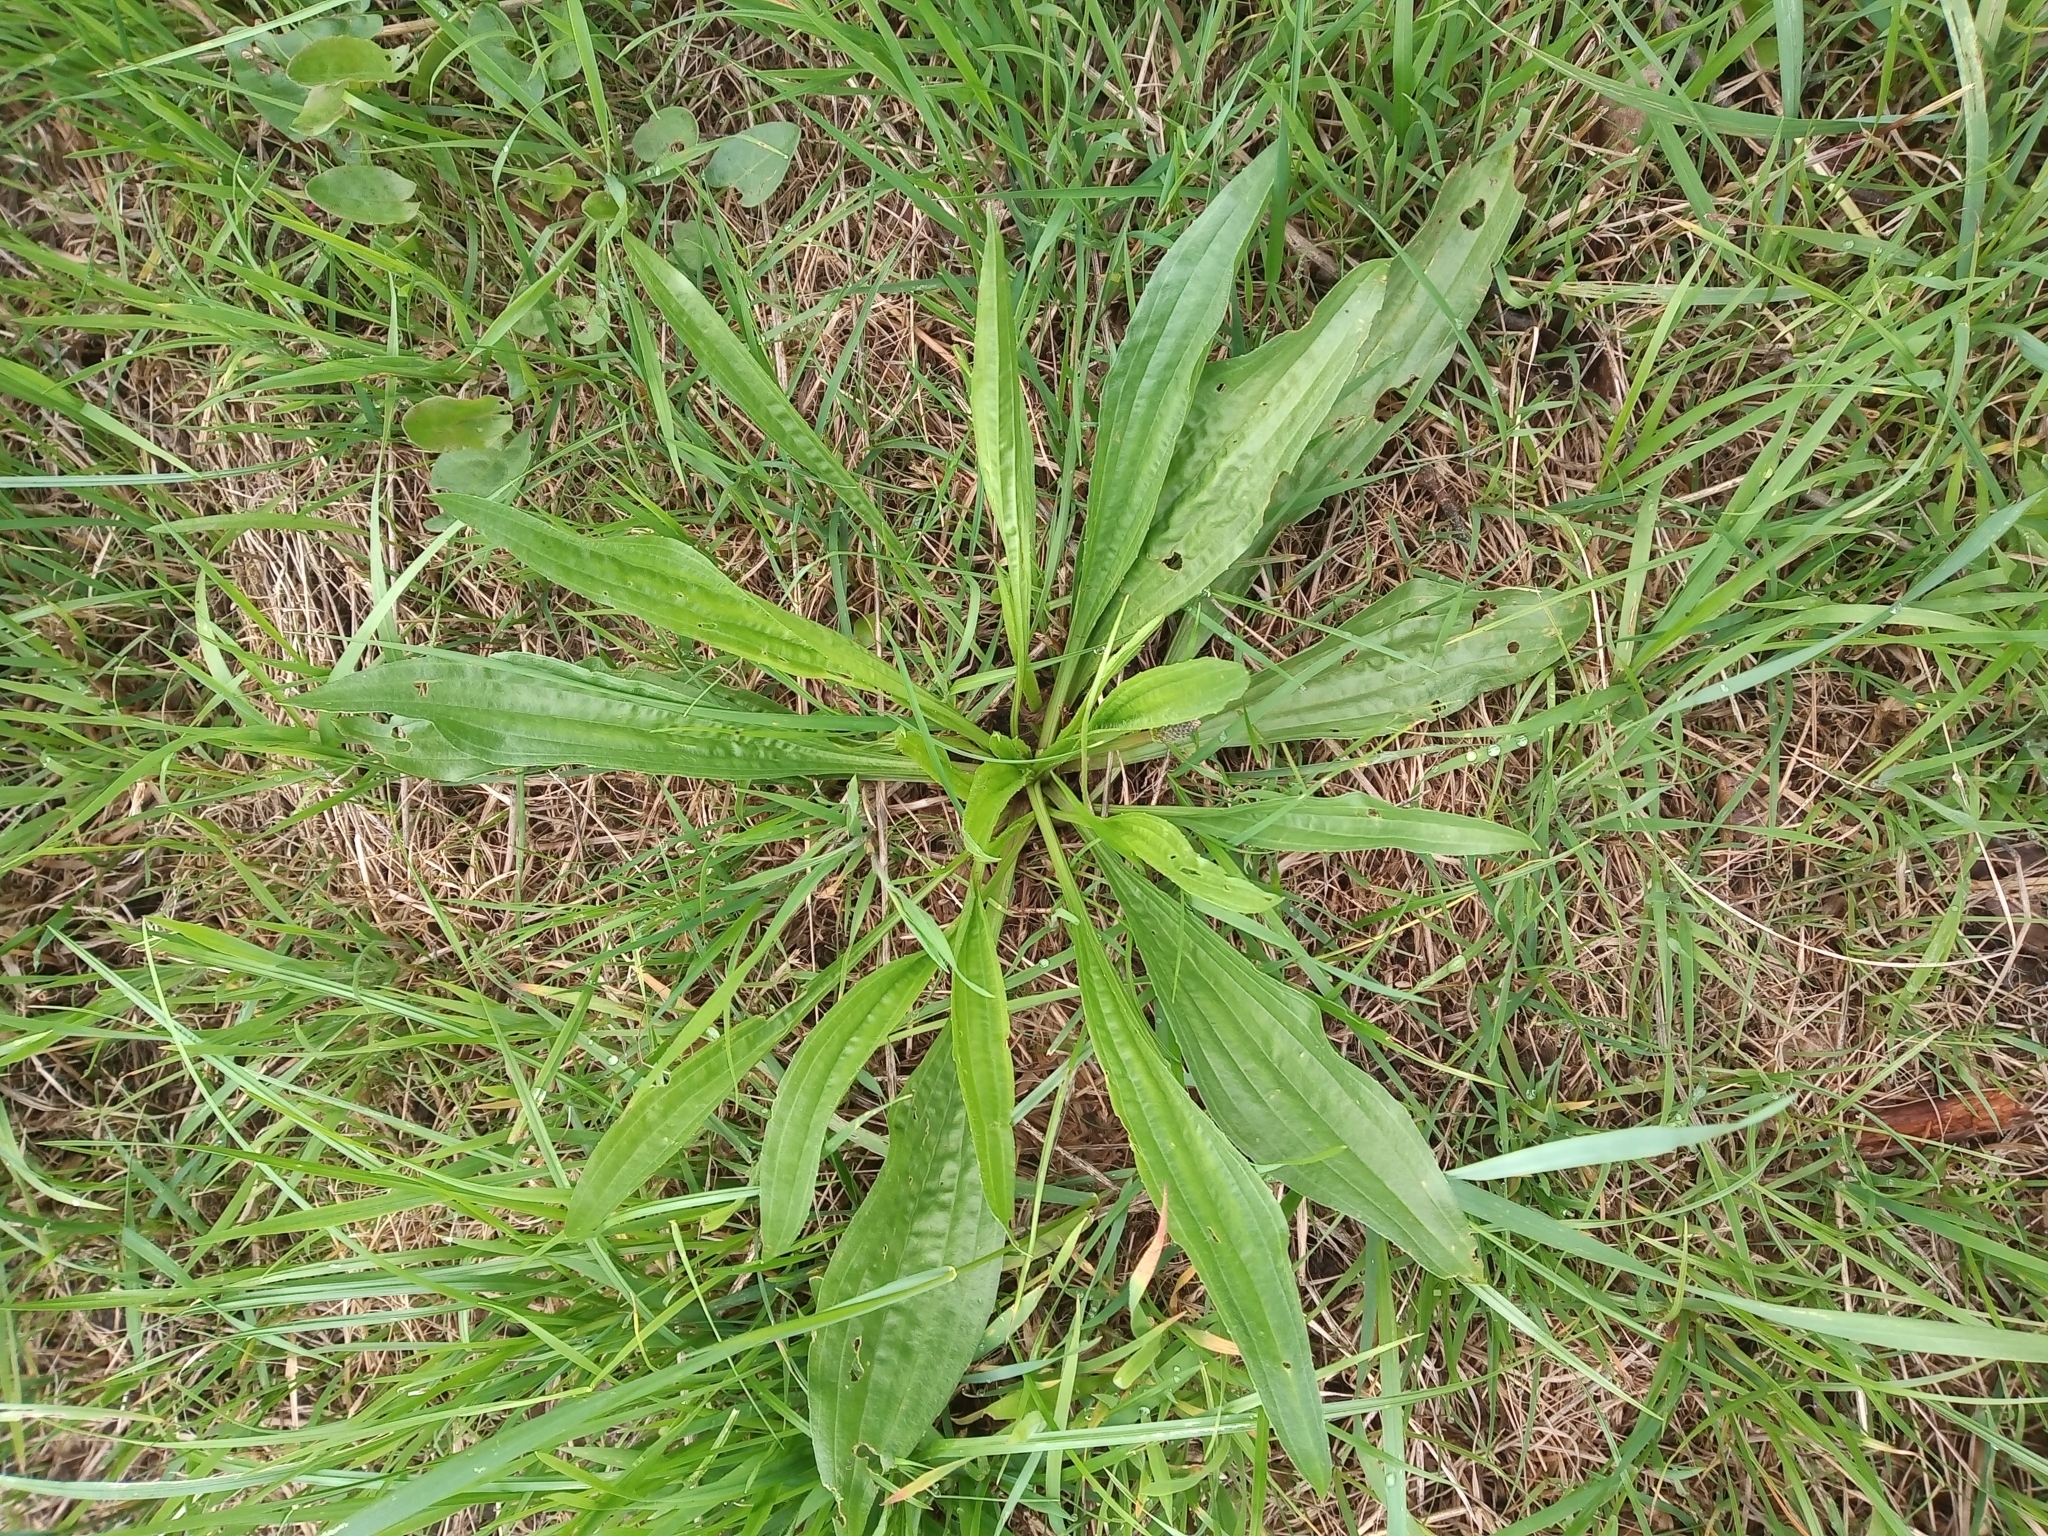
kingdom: Plantae
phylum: Tracheophyta
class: Magnoliopsida
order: Lamiales
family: Plantaginaceae
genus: Plantago
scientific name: Plantago lanceolata
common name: Ribwort plantain
